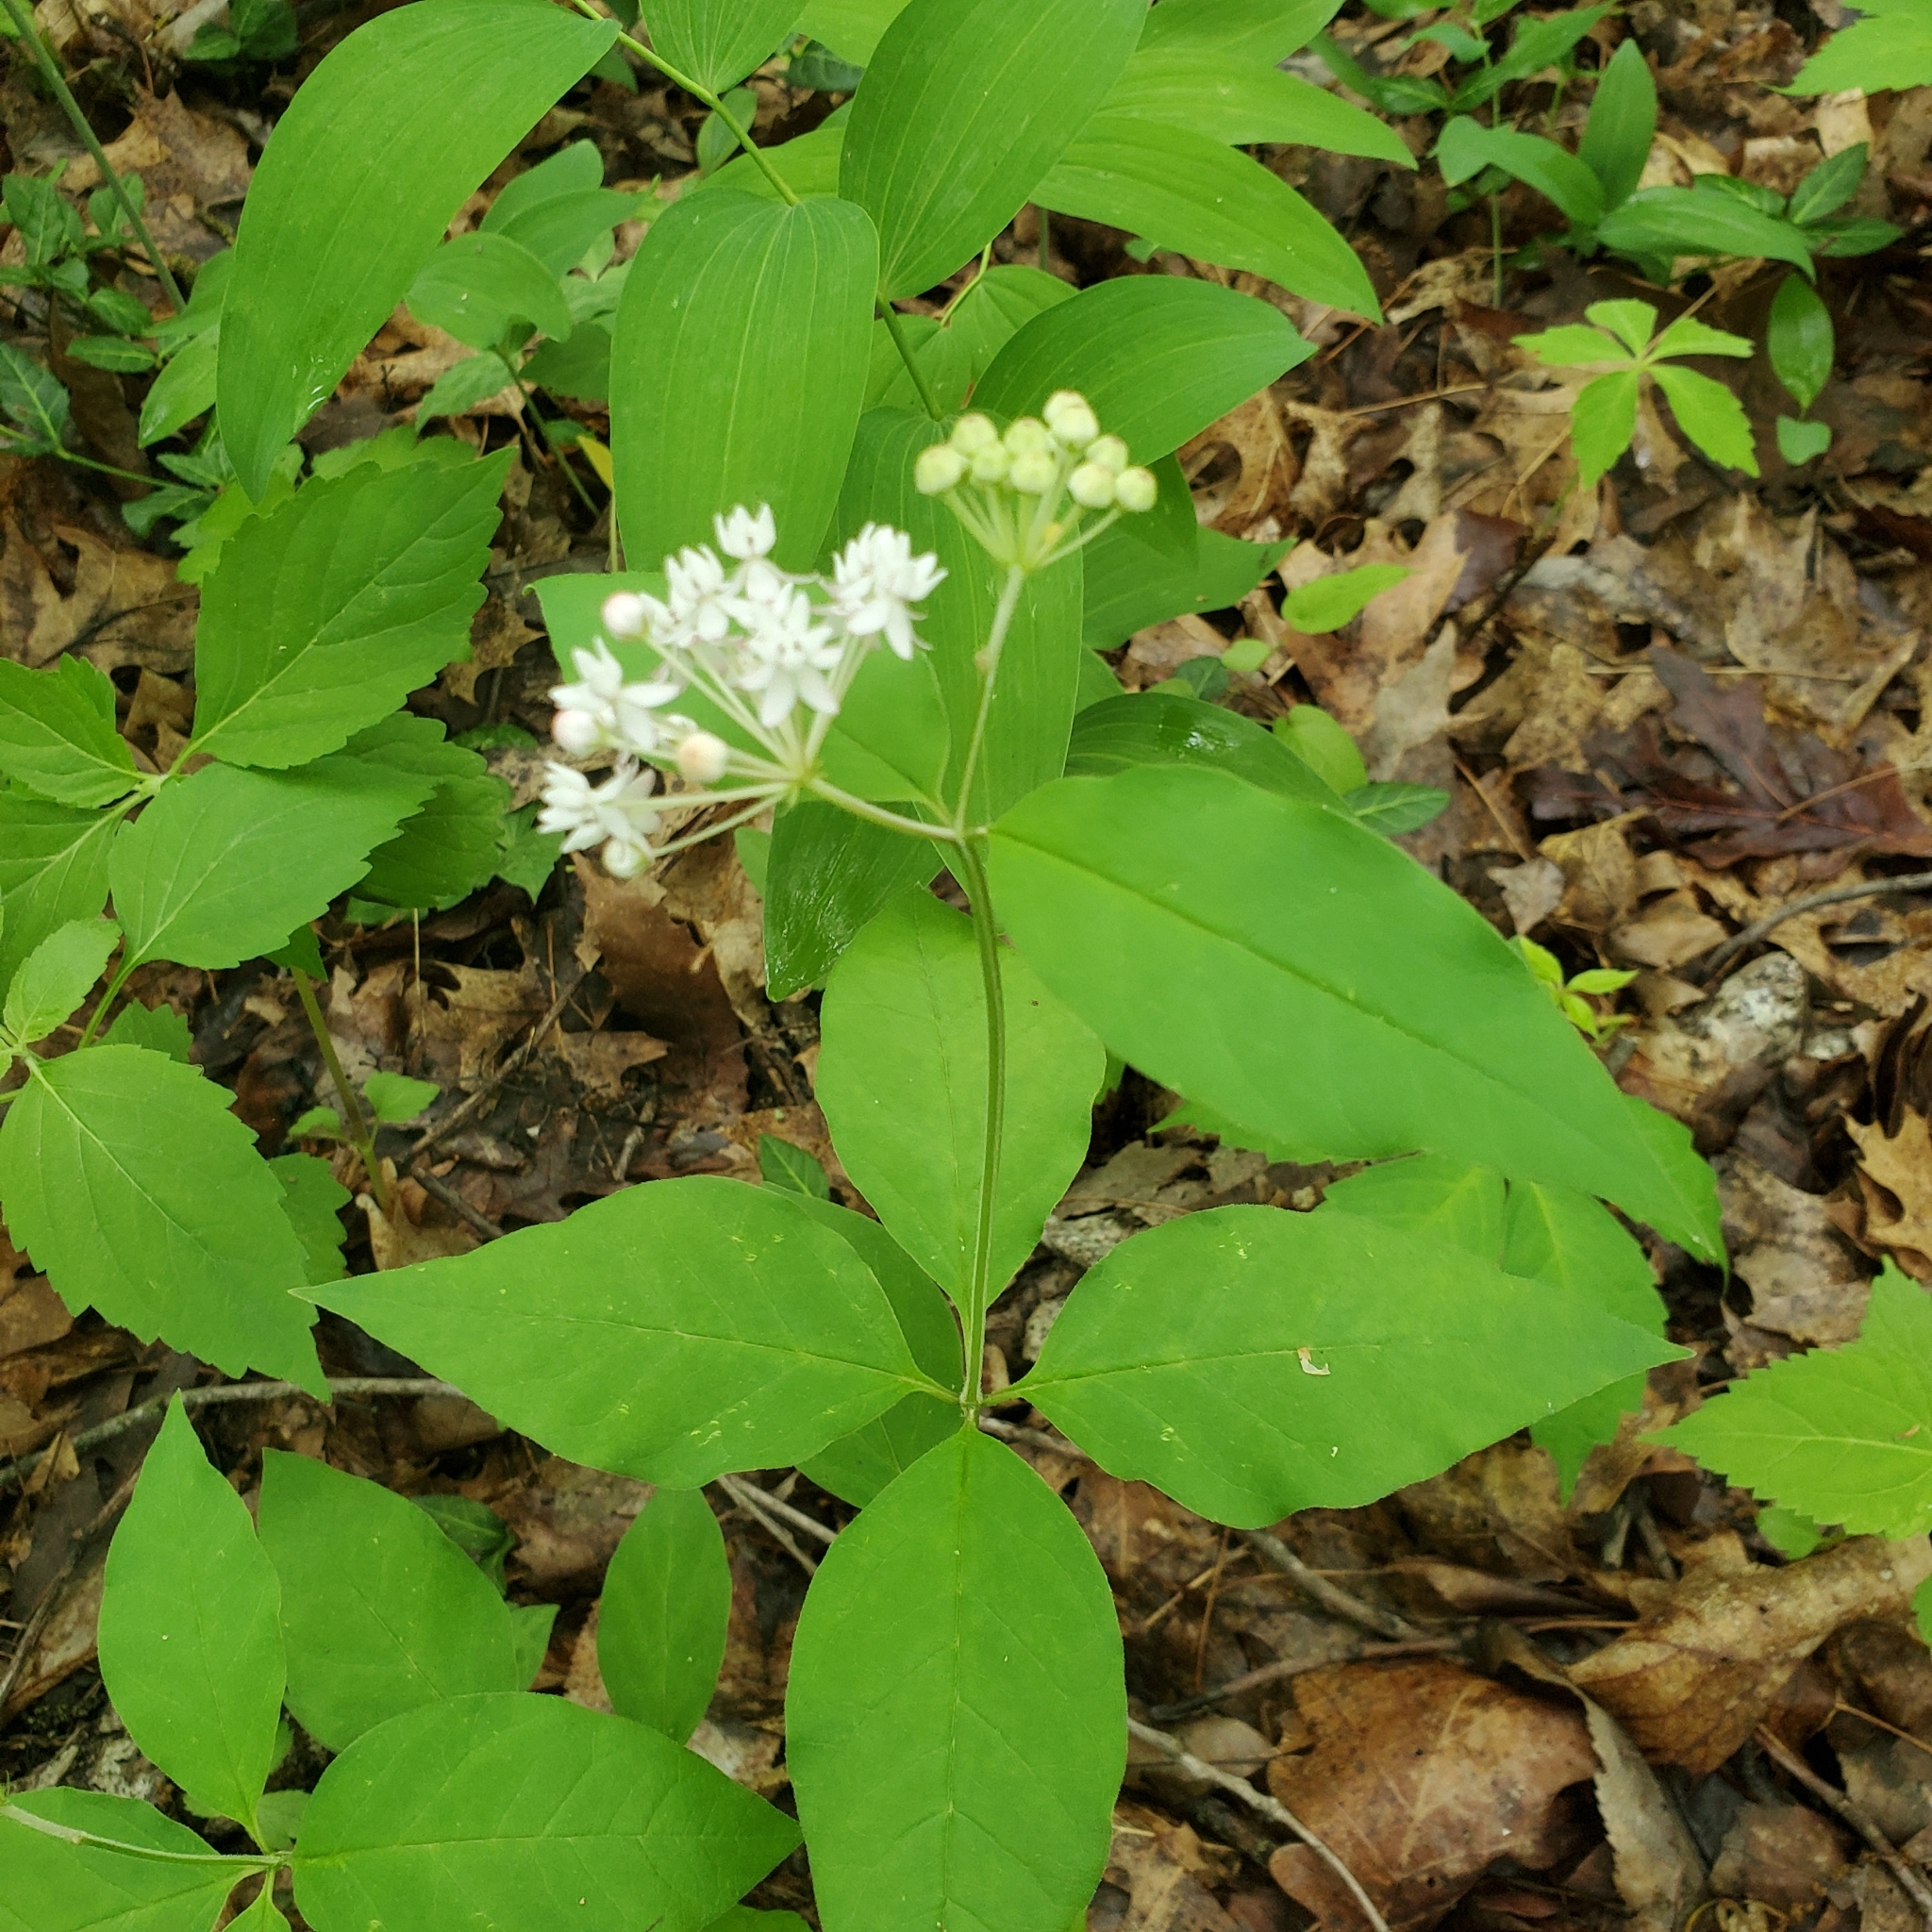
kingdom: Plantae
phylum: Tracheophyta
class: Magnoliopsida
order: Gentianales
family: Apocynaceae
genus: Asclepias
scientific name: Asclepias quadrifolia
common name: Whorled milkweed
